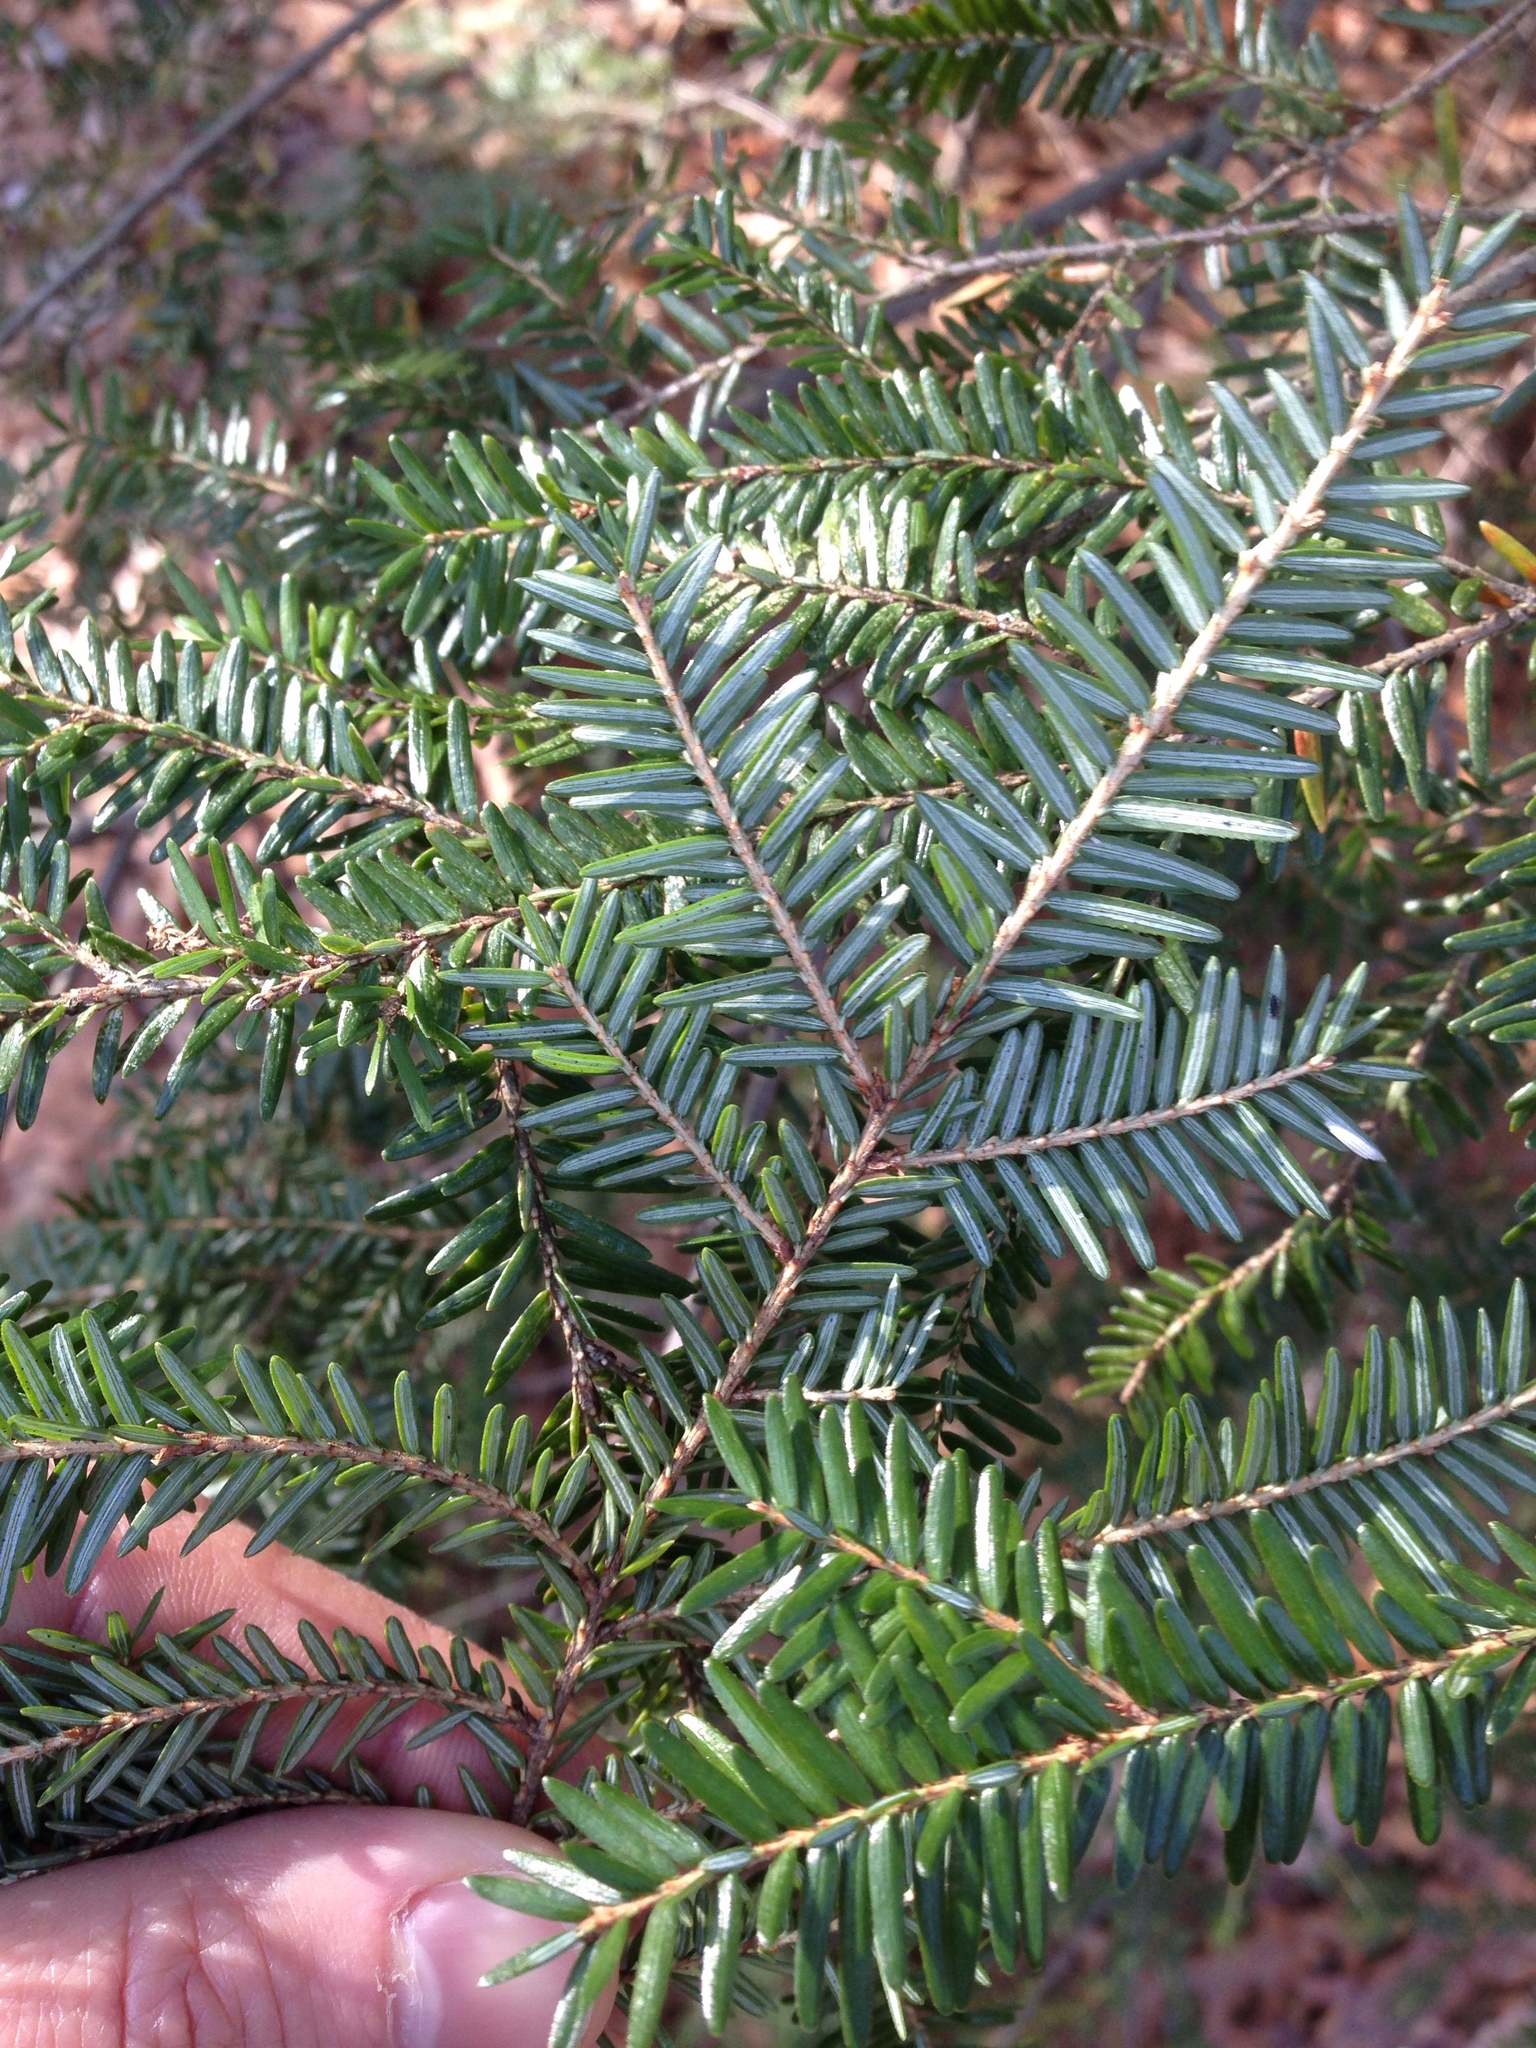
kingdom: Plantae
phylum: Tracheophyta
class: Pinopsida
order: Pinales
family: Pinaceae
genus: Tsuga
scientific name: Tsuga canadensis
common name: Eastern hemlock
